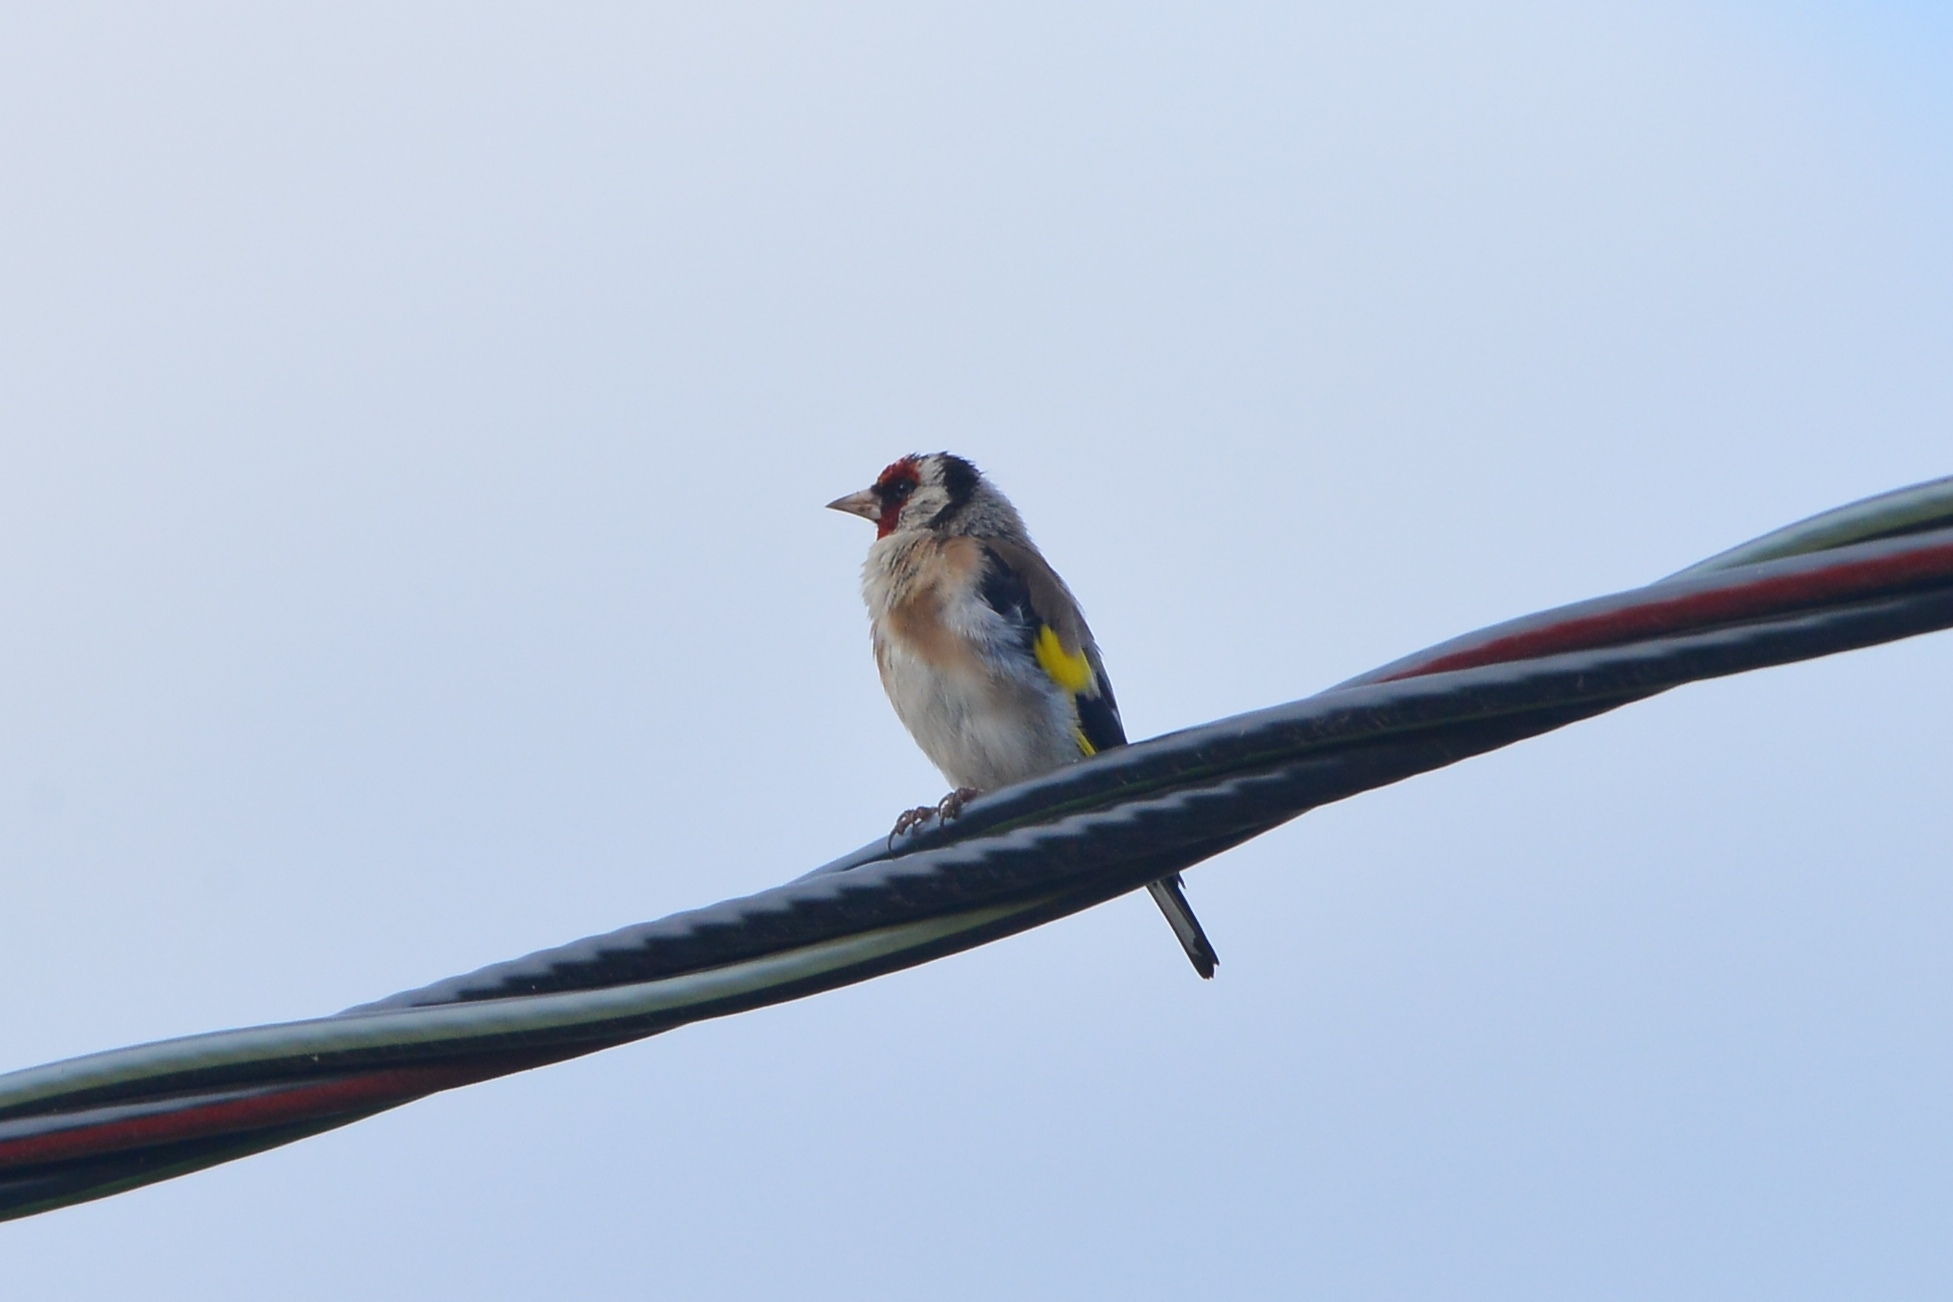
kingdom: Animalia
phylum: Chordata
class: Aves
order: Passeriformes
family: Fringillidae
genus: Carduelis
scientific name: Carduelis carduelis
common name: European goldfinch
